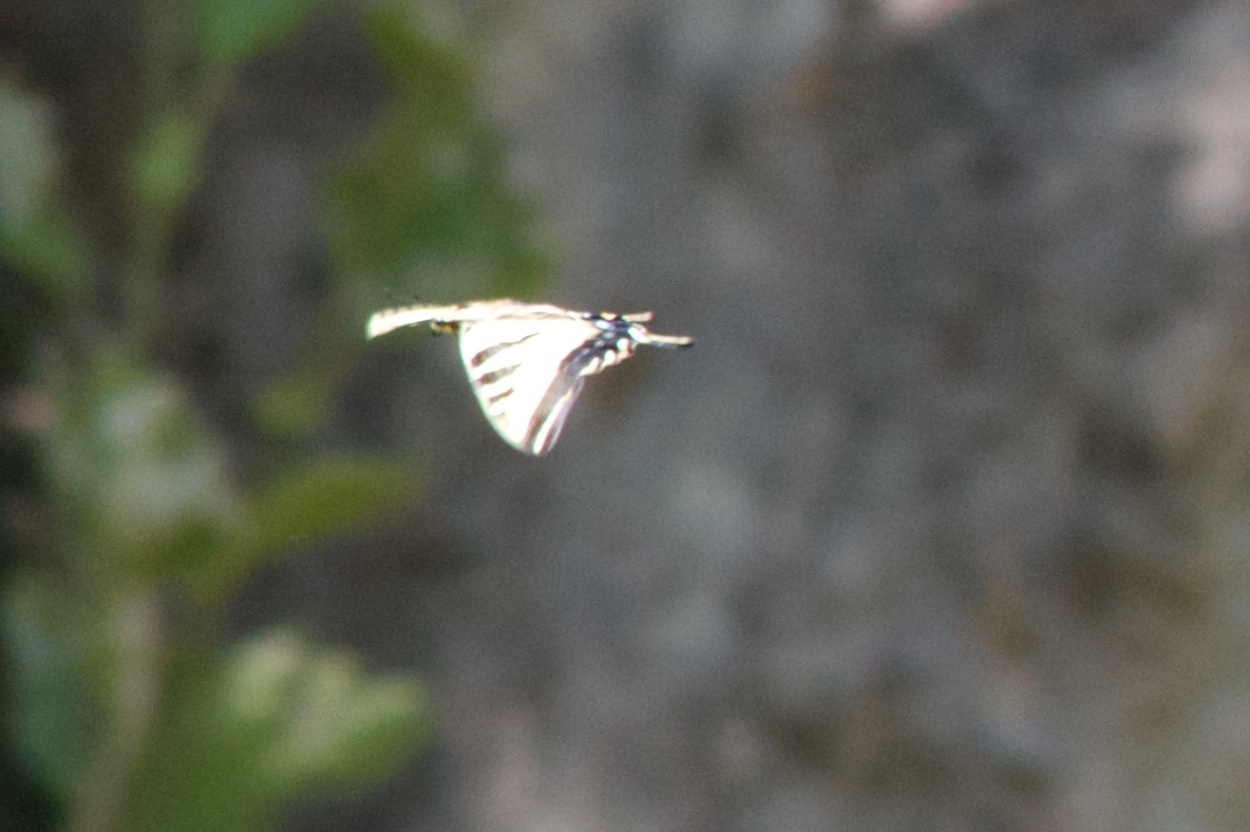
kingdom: Animalia
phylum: Arthropoda
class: Insecta
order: Lepidoptera
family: Papilionidae
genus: Papilio
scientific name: Papilio rutulus
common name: Western tiger swallowtail
